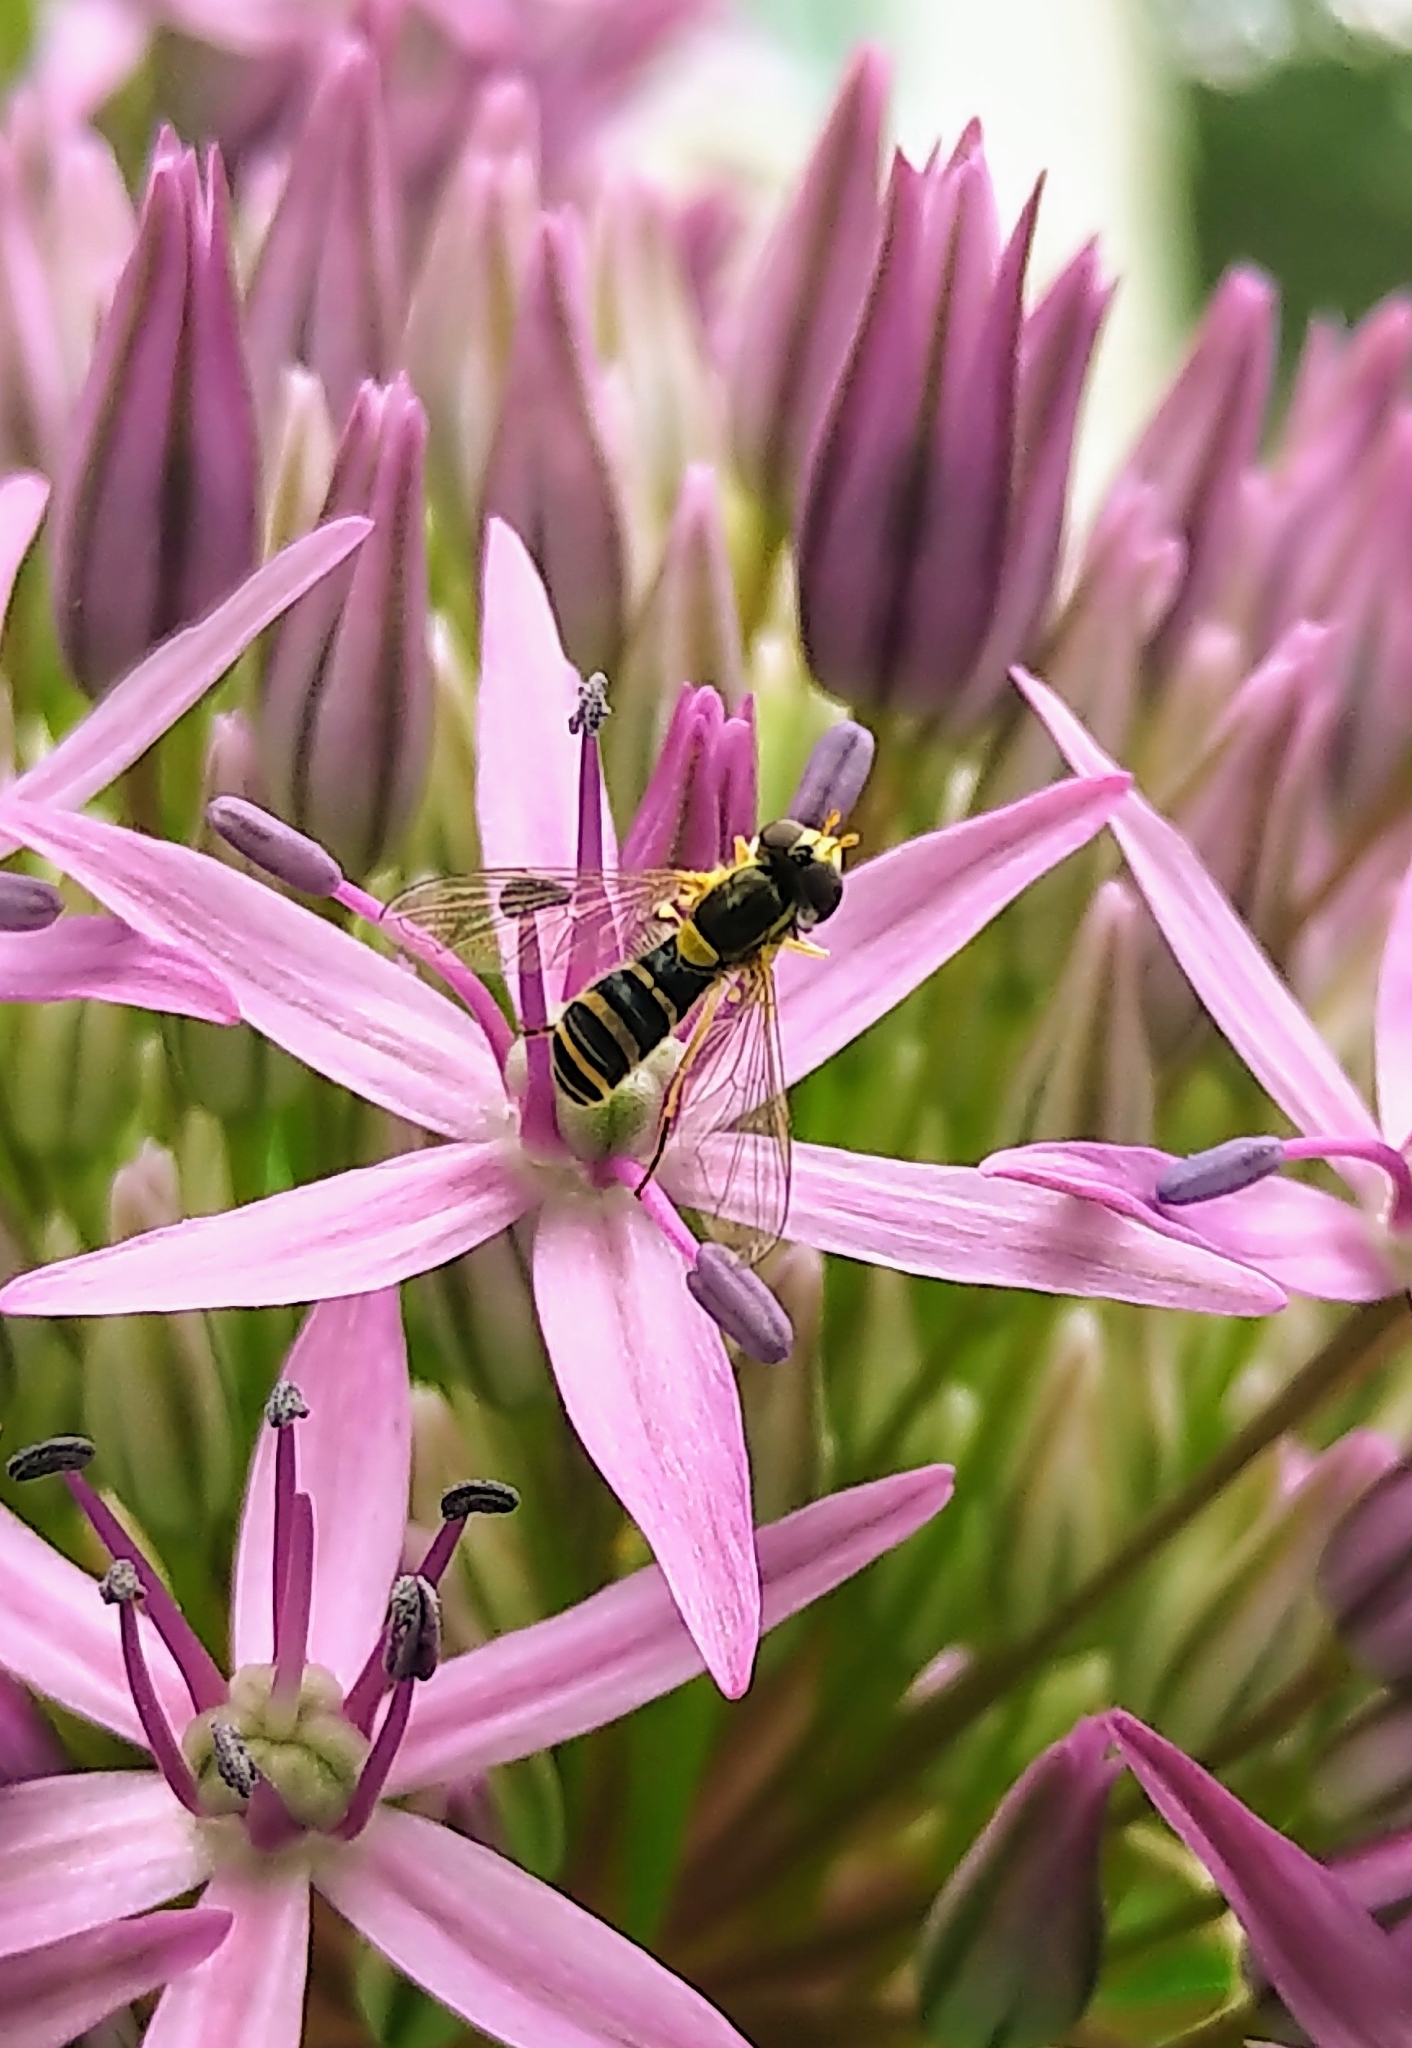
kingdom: Animalia
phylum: Arthropoda
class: Insecta
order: Diptera
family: Syrphidae
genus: Sphaerophoria
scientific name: Sphaerophoria
